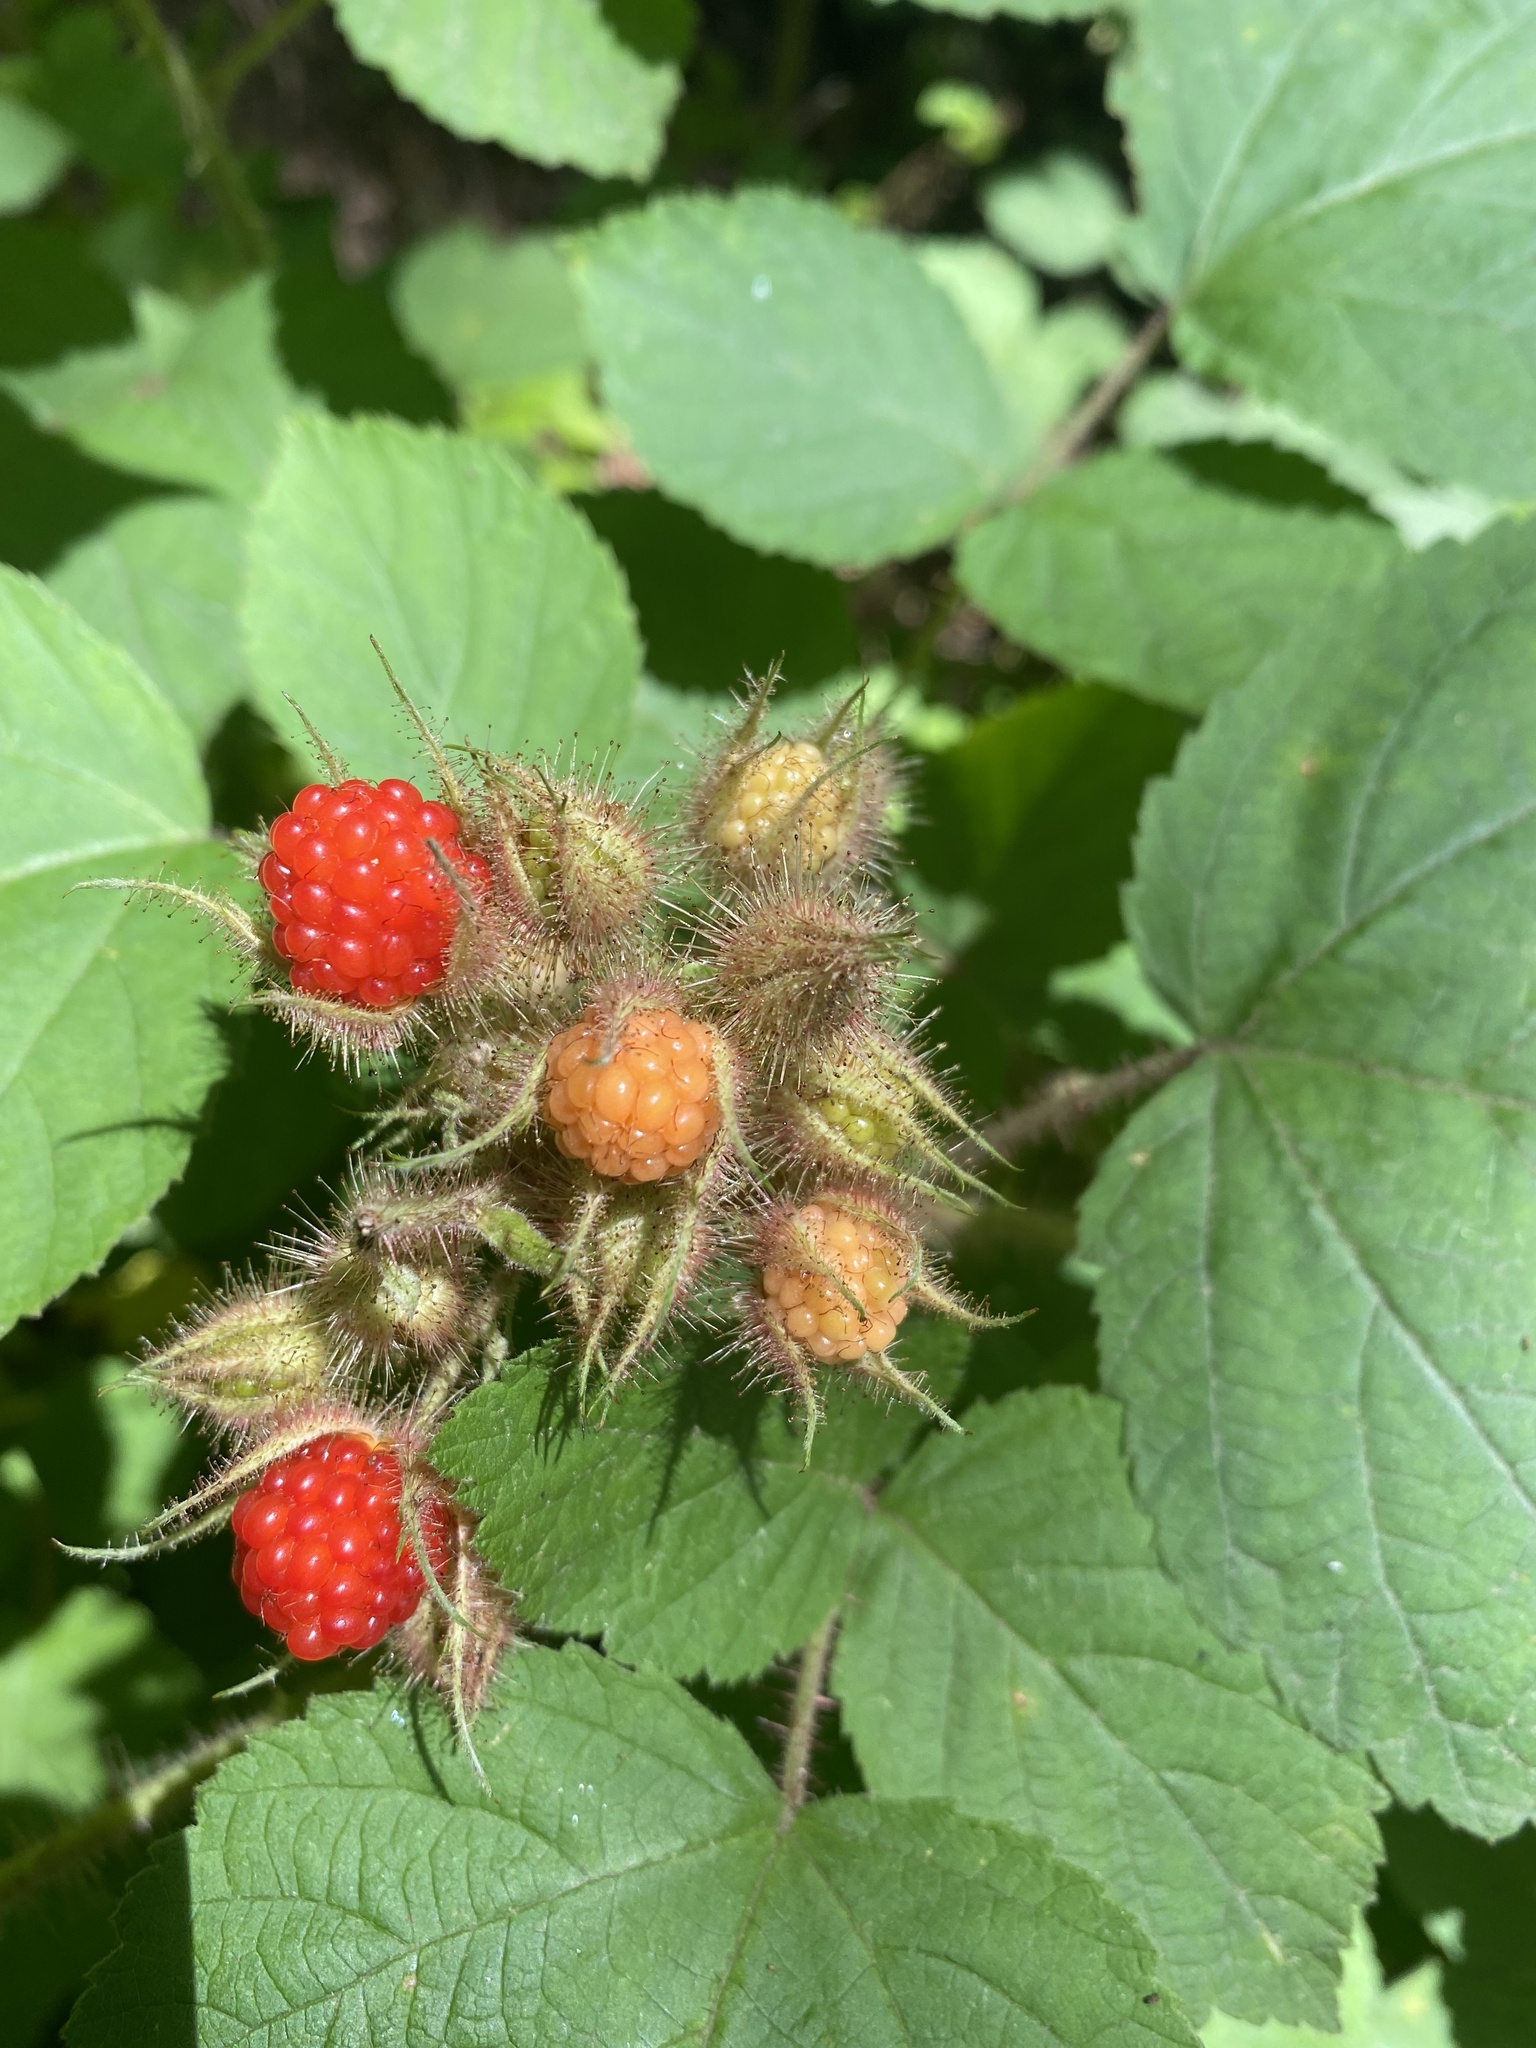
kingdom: Plantae
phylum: Tracheophyta
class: Magnoliopsida
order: Rosales
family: Rosaceae
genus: Rubus
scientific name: Rubus phoenicolasius
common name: Japanese wineberry
